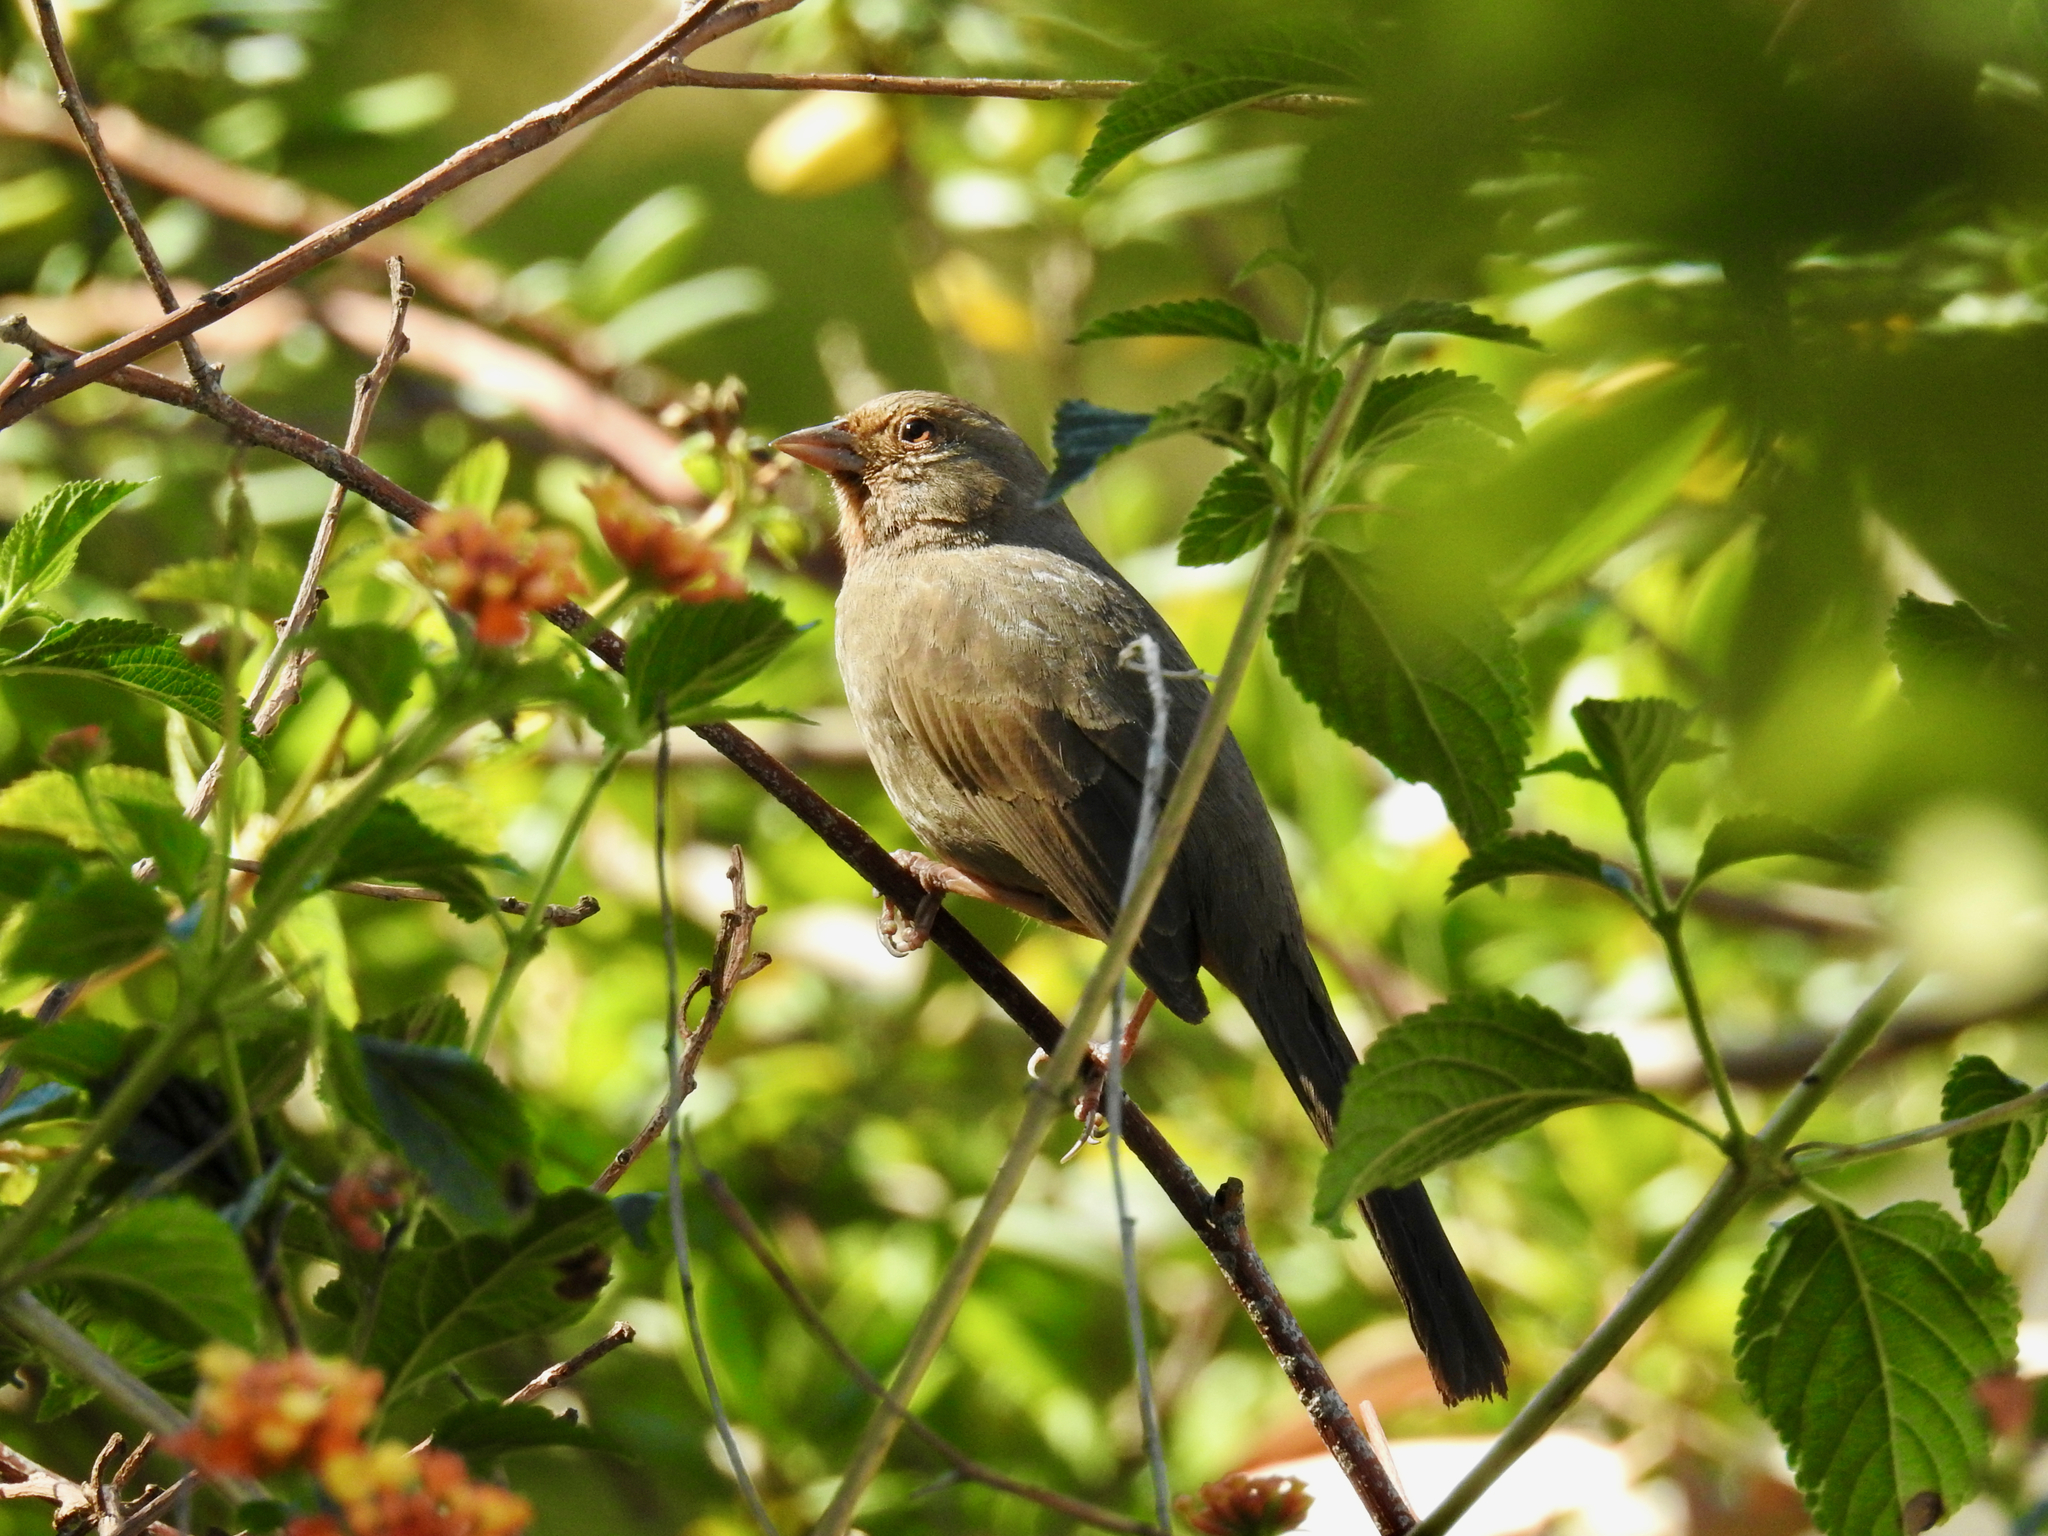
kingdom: Animalia
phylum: Chordata
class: Aves
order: Passeriformes
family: Passerellidae
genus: Melozone
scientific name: Melozone crissalis
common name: California towhee
